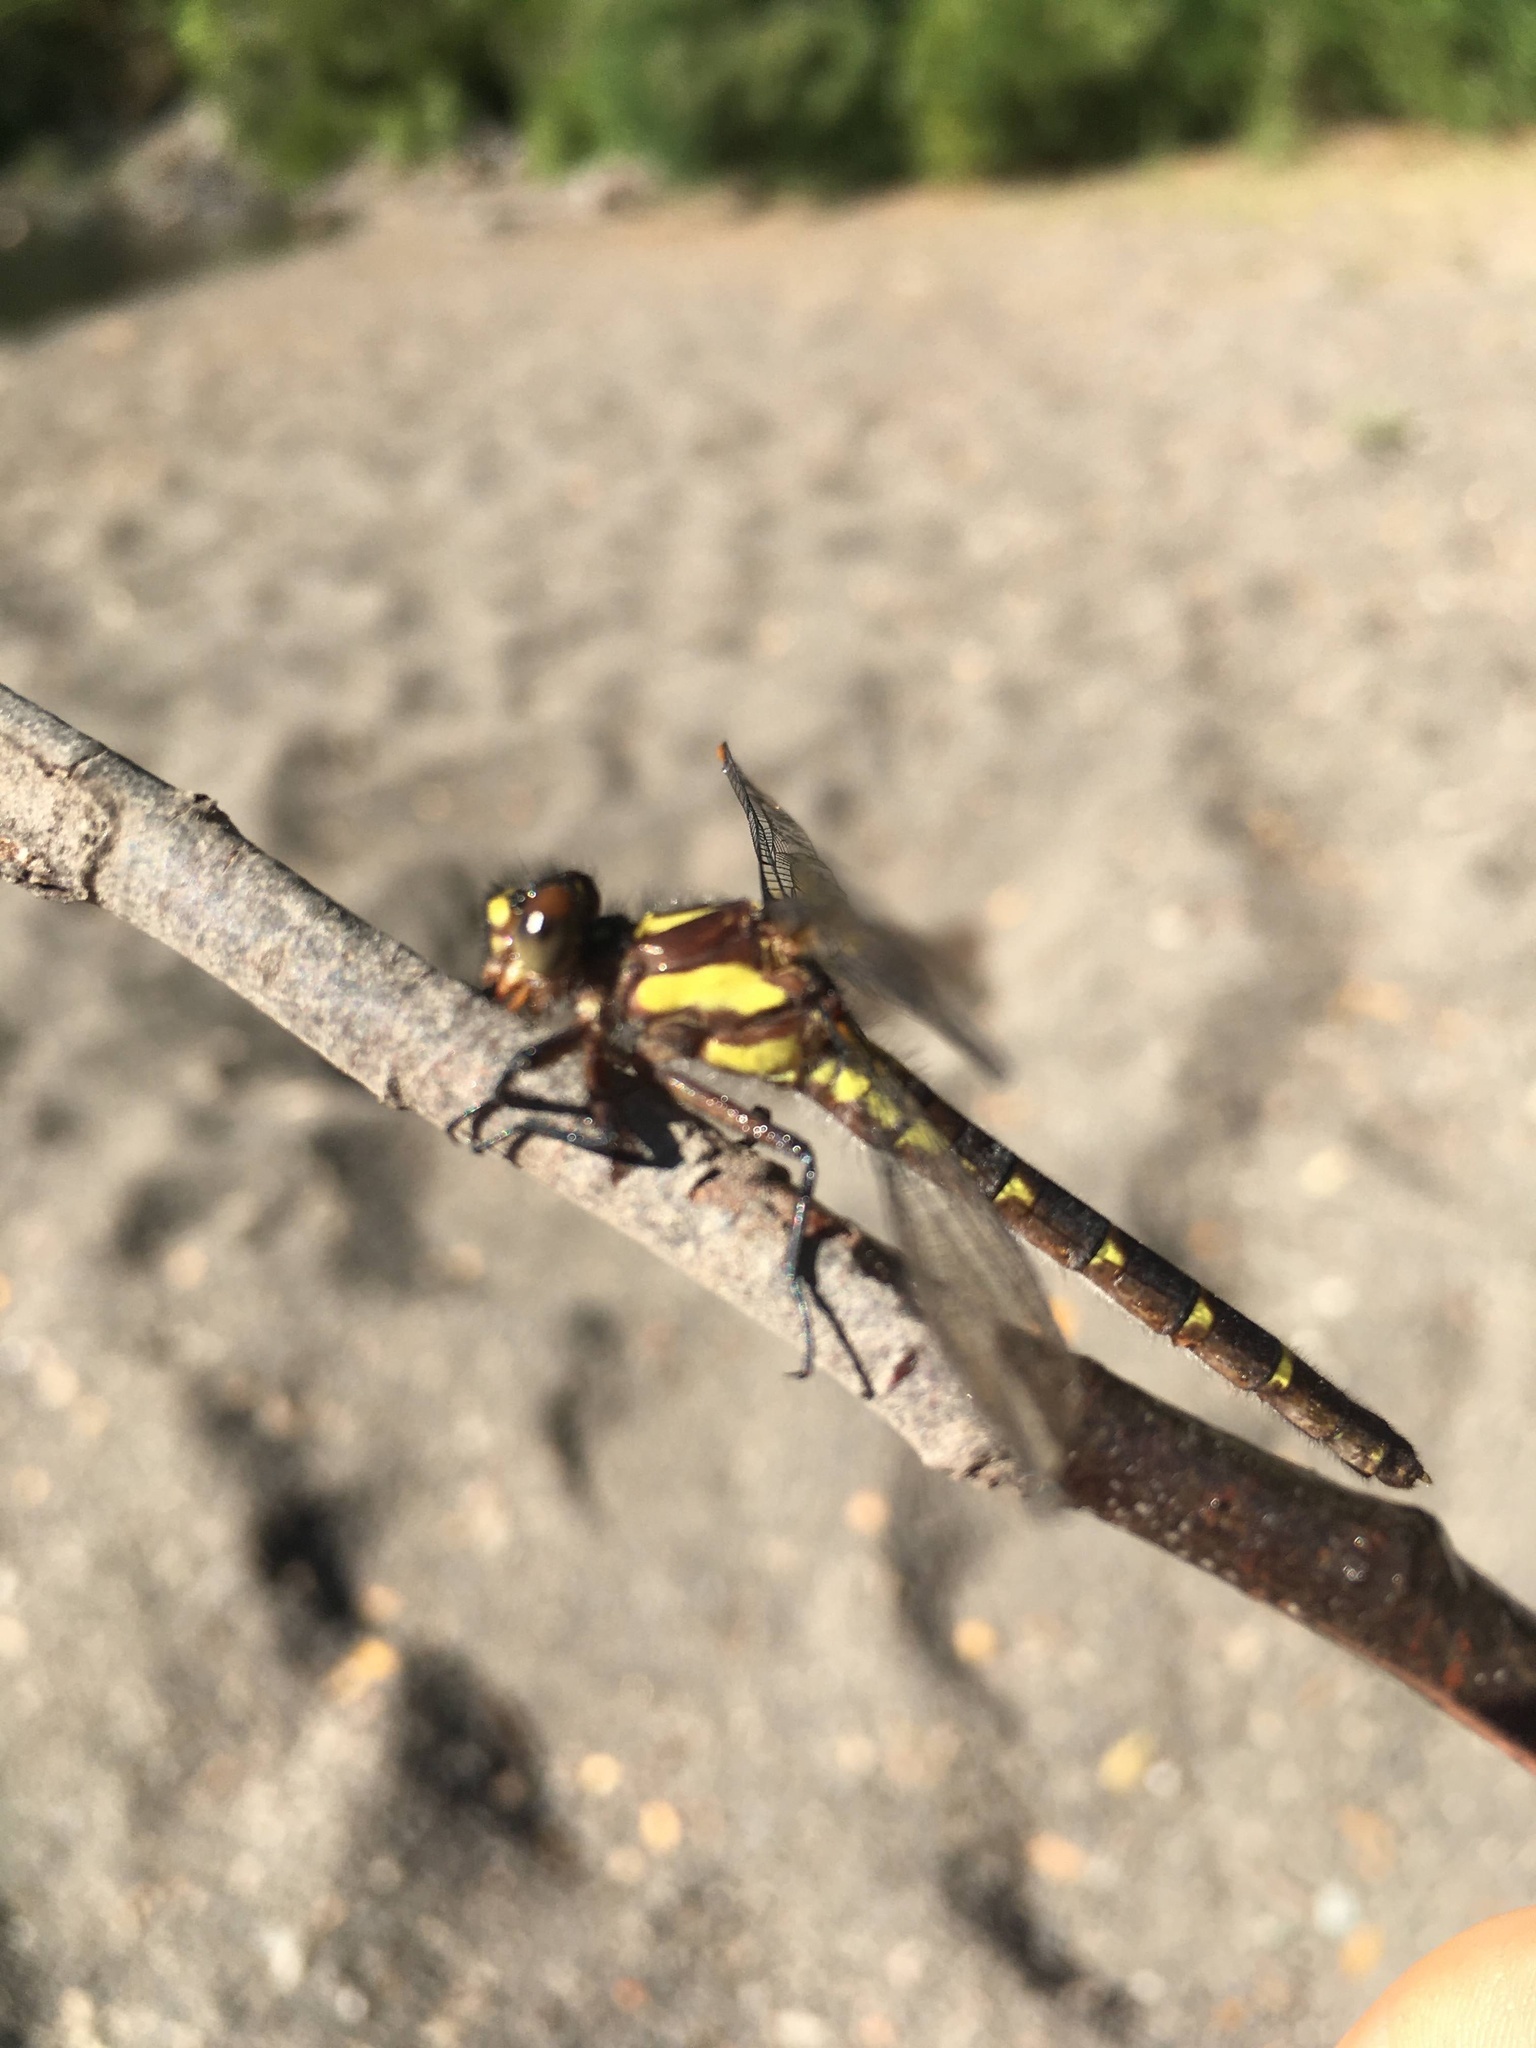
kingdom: Animalia
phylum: Arthropoda
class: Insecta
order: Odonata
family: Gomphidae
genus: Neogomphus
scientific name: Neogomphus edenticulatus
